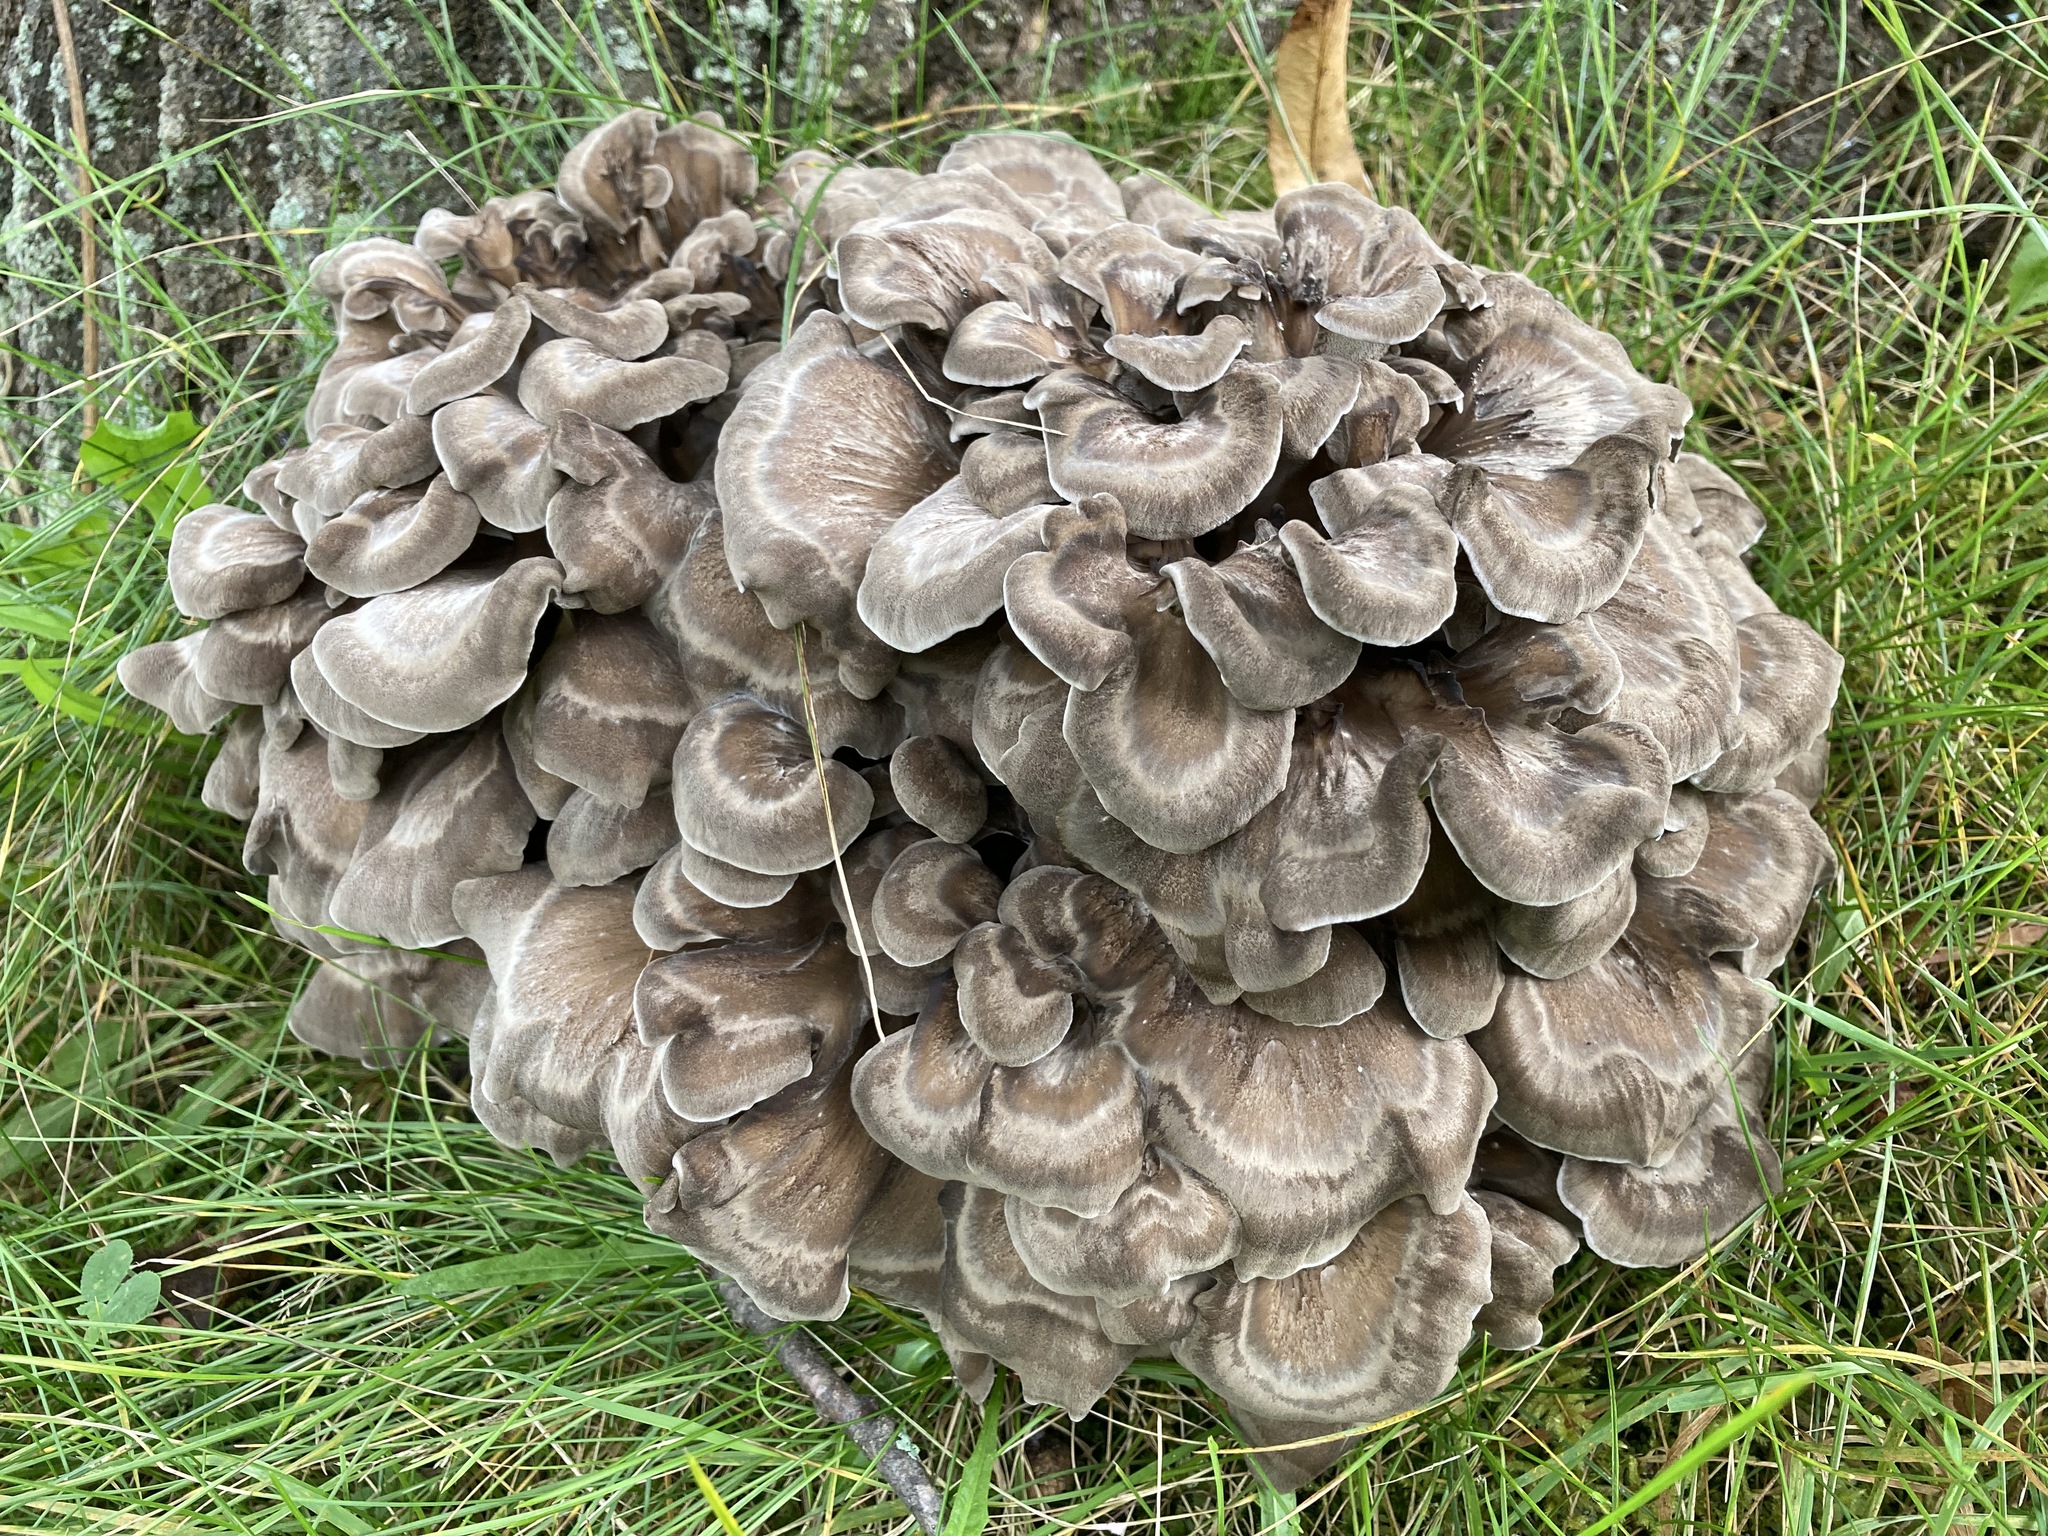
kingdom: Fungi
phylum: Basidiomycota
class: Agaricomycetes
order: Polyporales
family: Grifolaceae
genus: Grifola
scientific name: Grifola frondosa
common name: Hen of the woods
